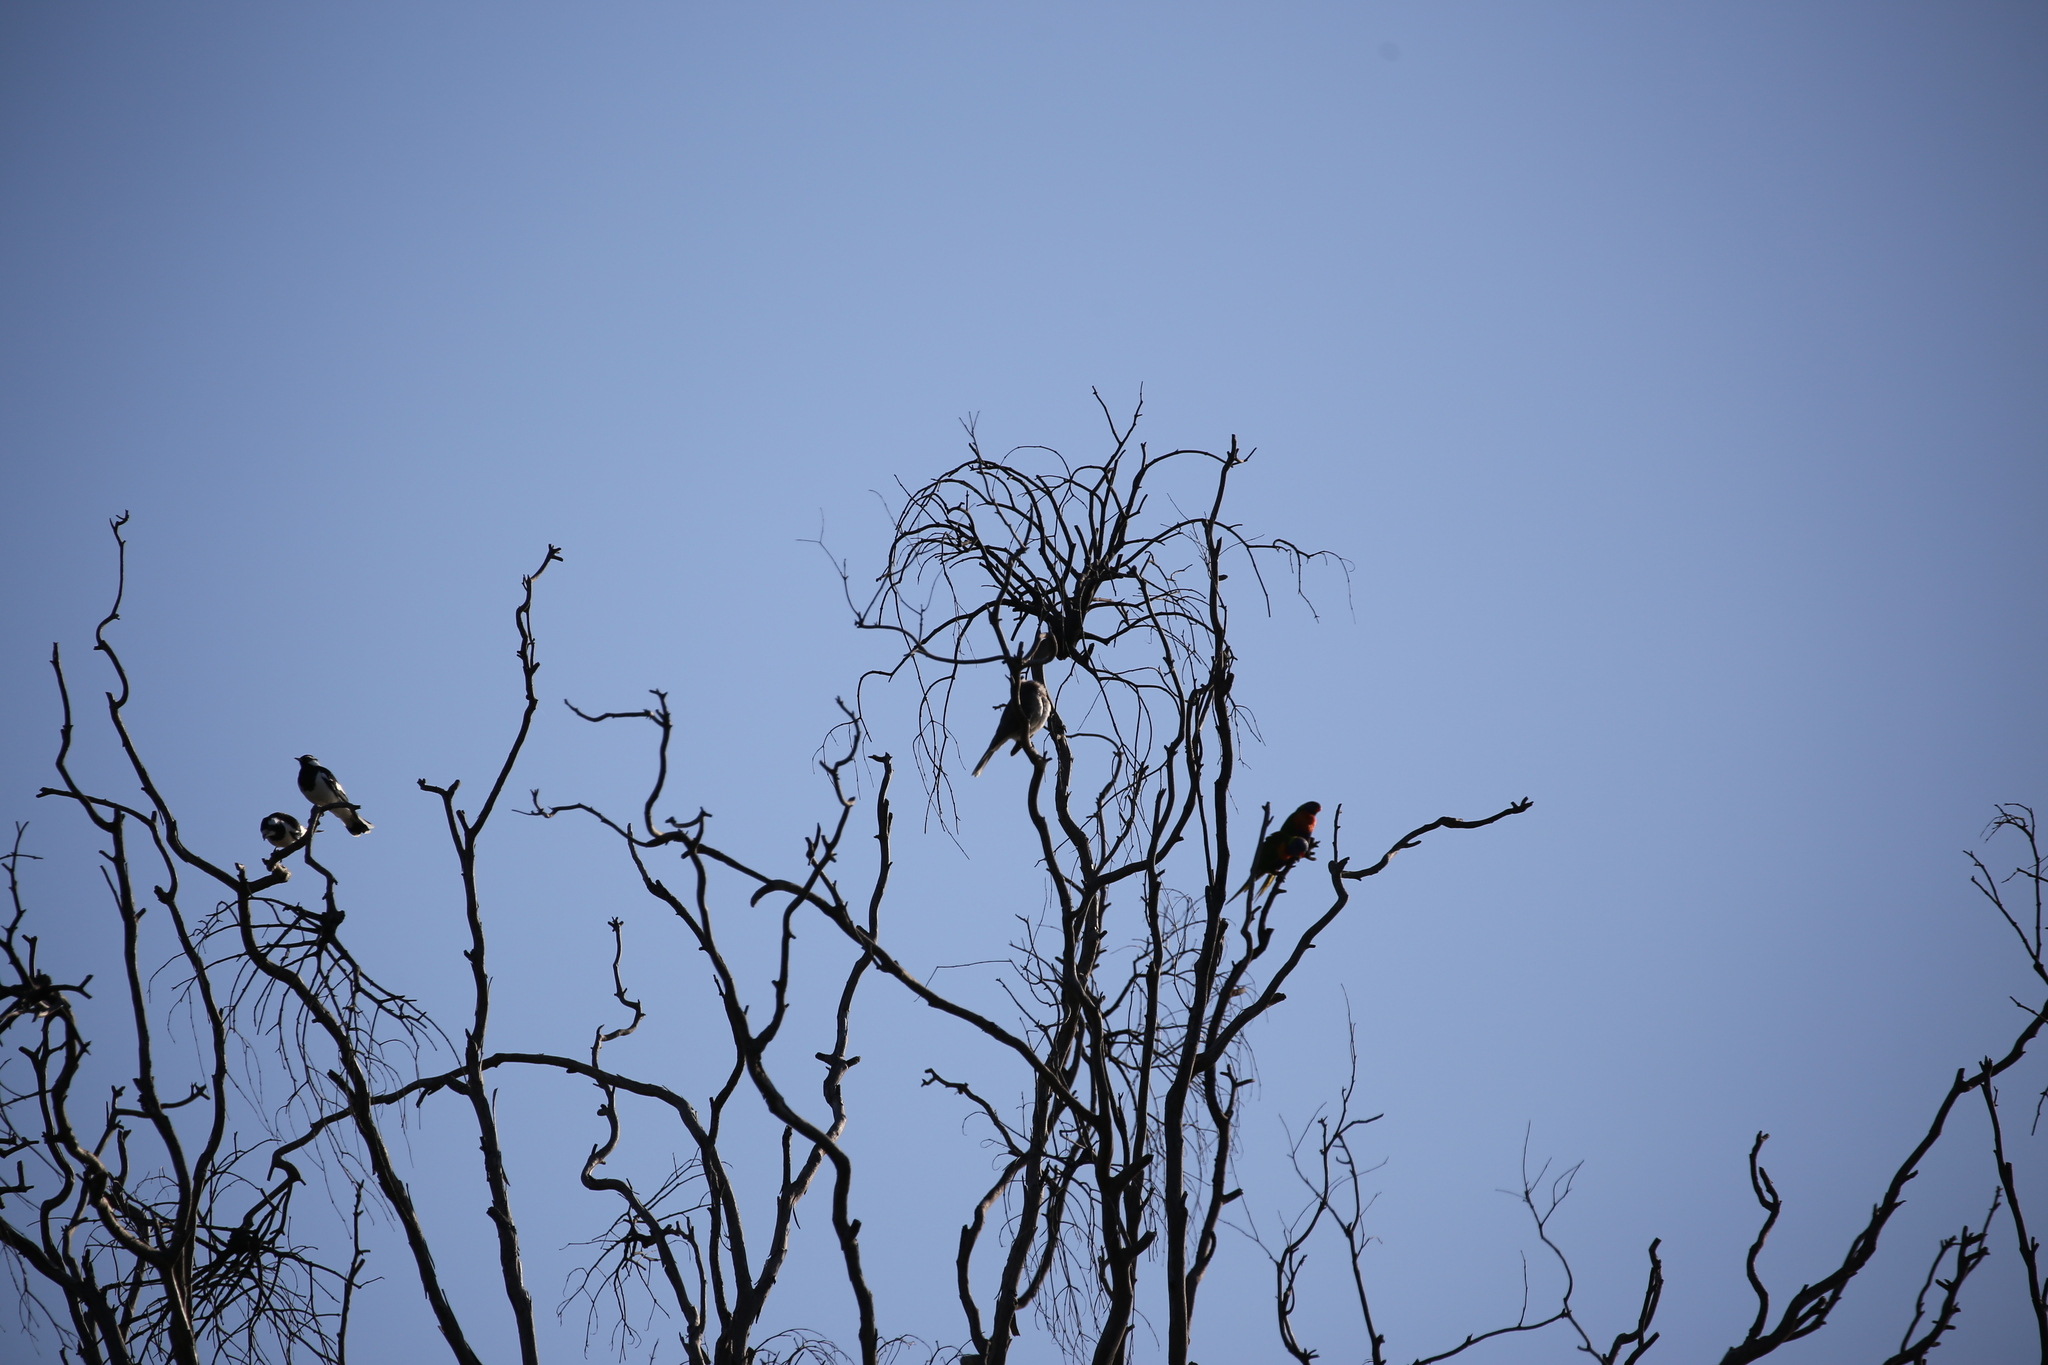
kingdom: Animalia
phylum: Chordata
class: Aves
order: Passeriformes
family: Monarchidae
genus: Grallina
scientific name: Grallina cyanoleuca
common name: Magpie-lark
